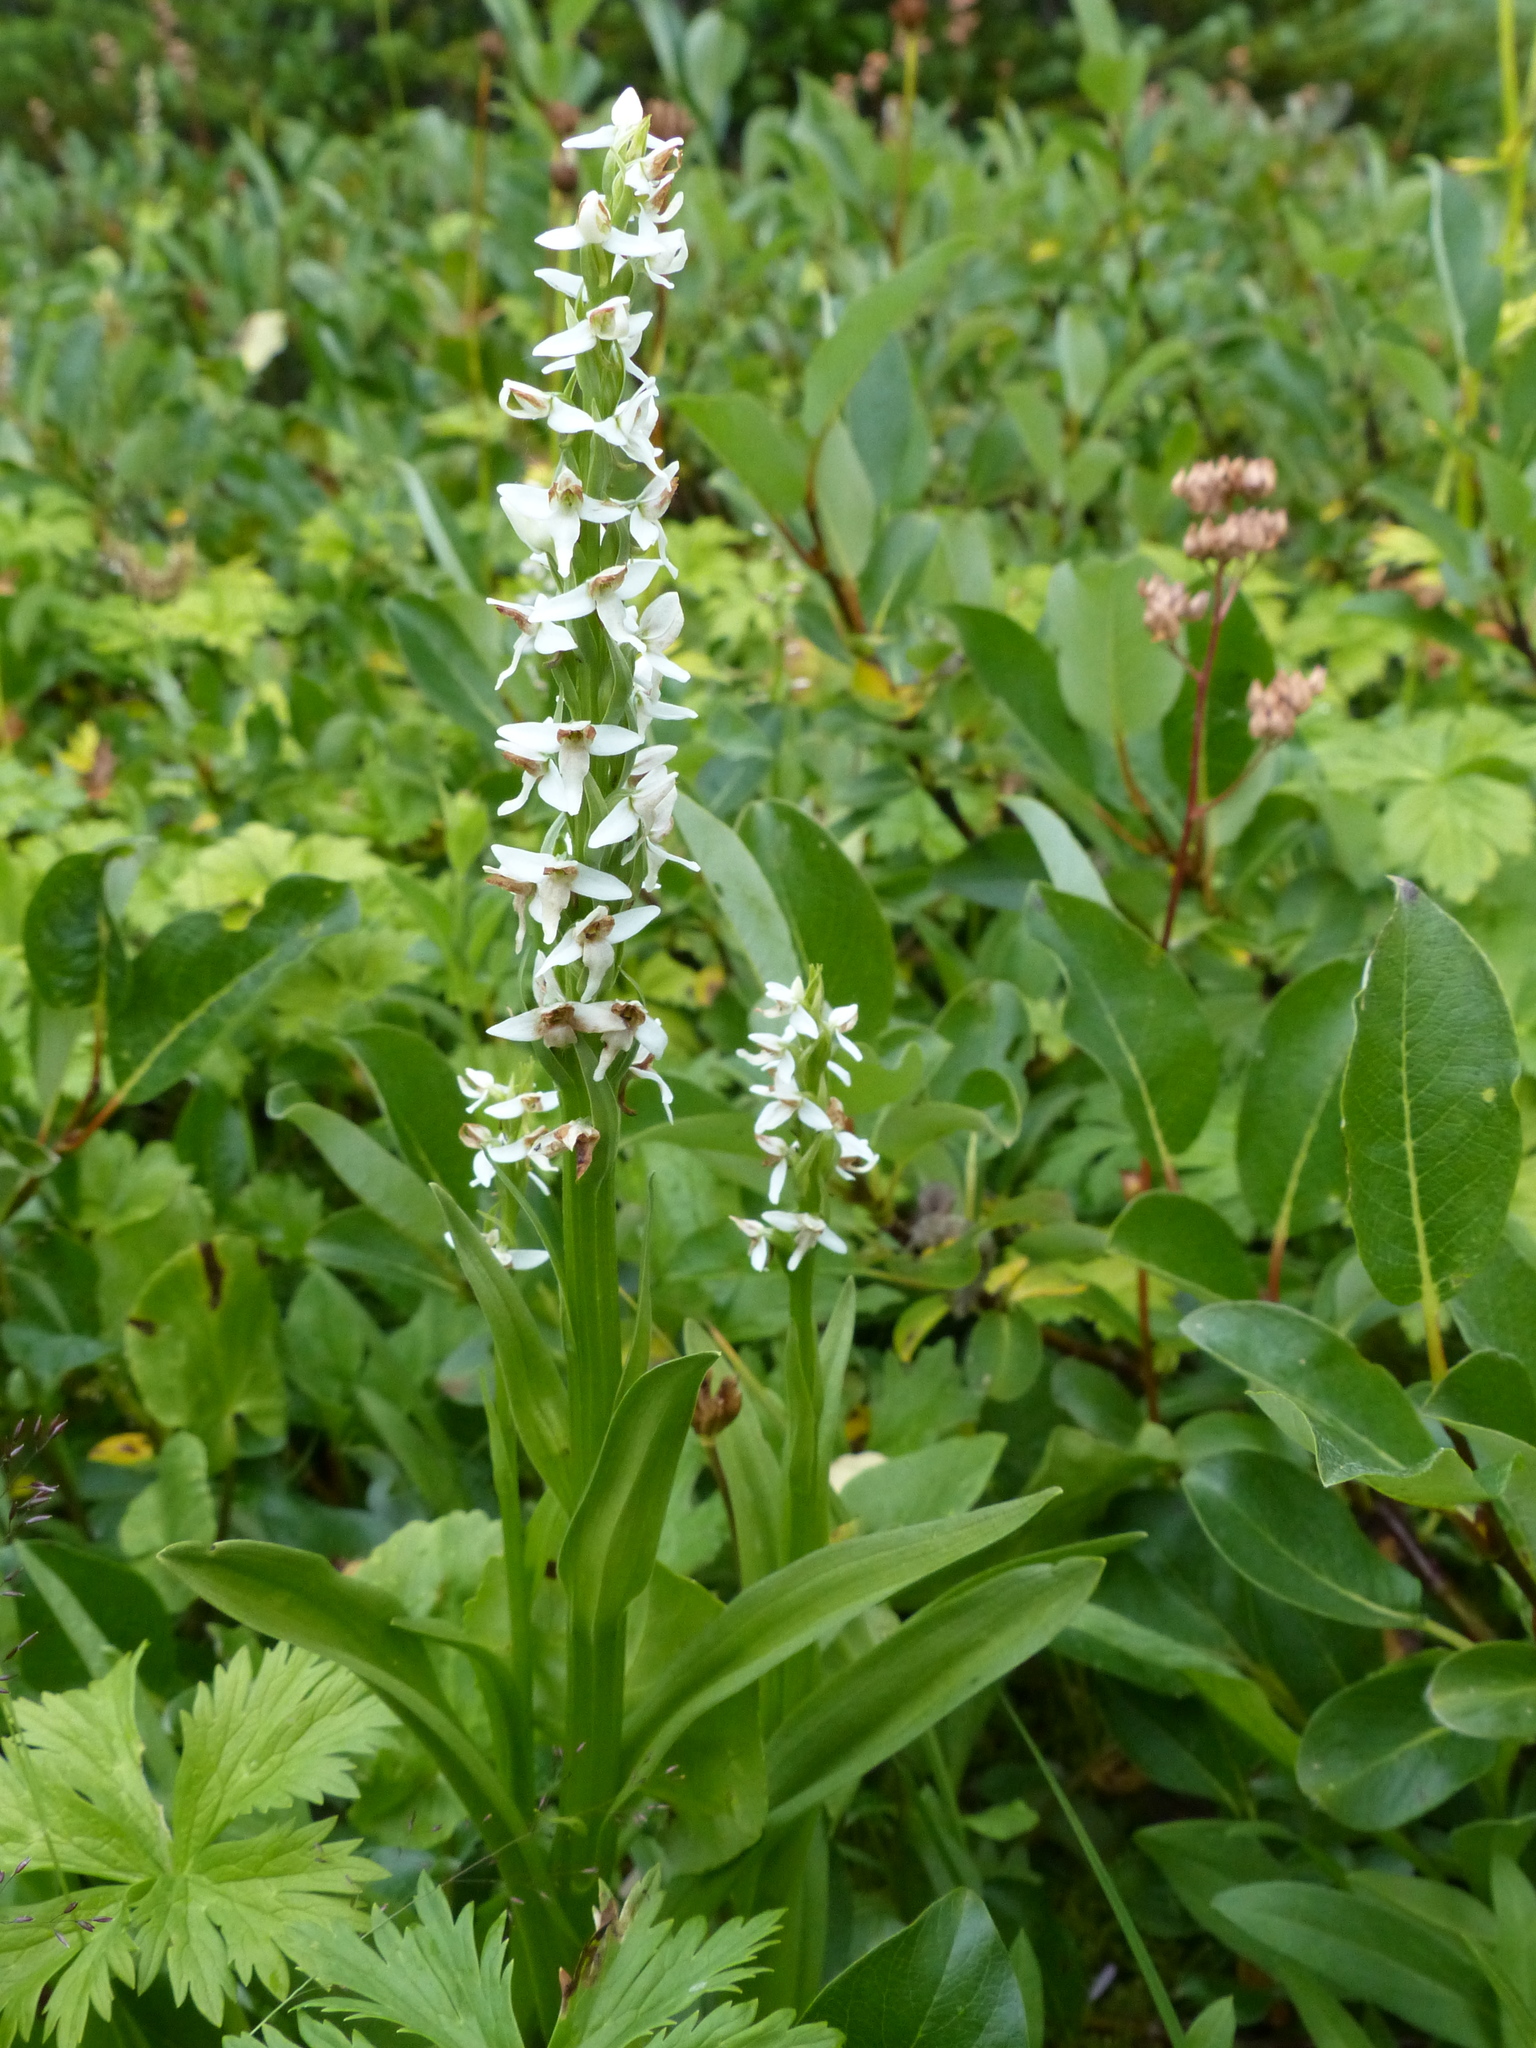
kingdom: Plantae
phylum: Tracheophyta
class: Liliopsida
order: Asparagales
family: Orchidaceae
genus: Platanthera
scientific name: Platanthera dilatata
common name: Bog candles
